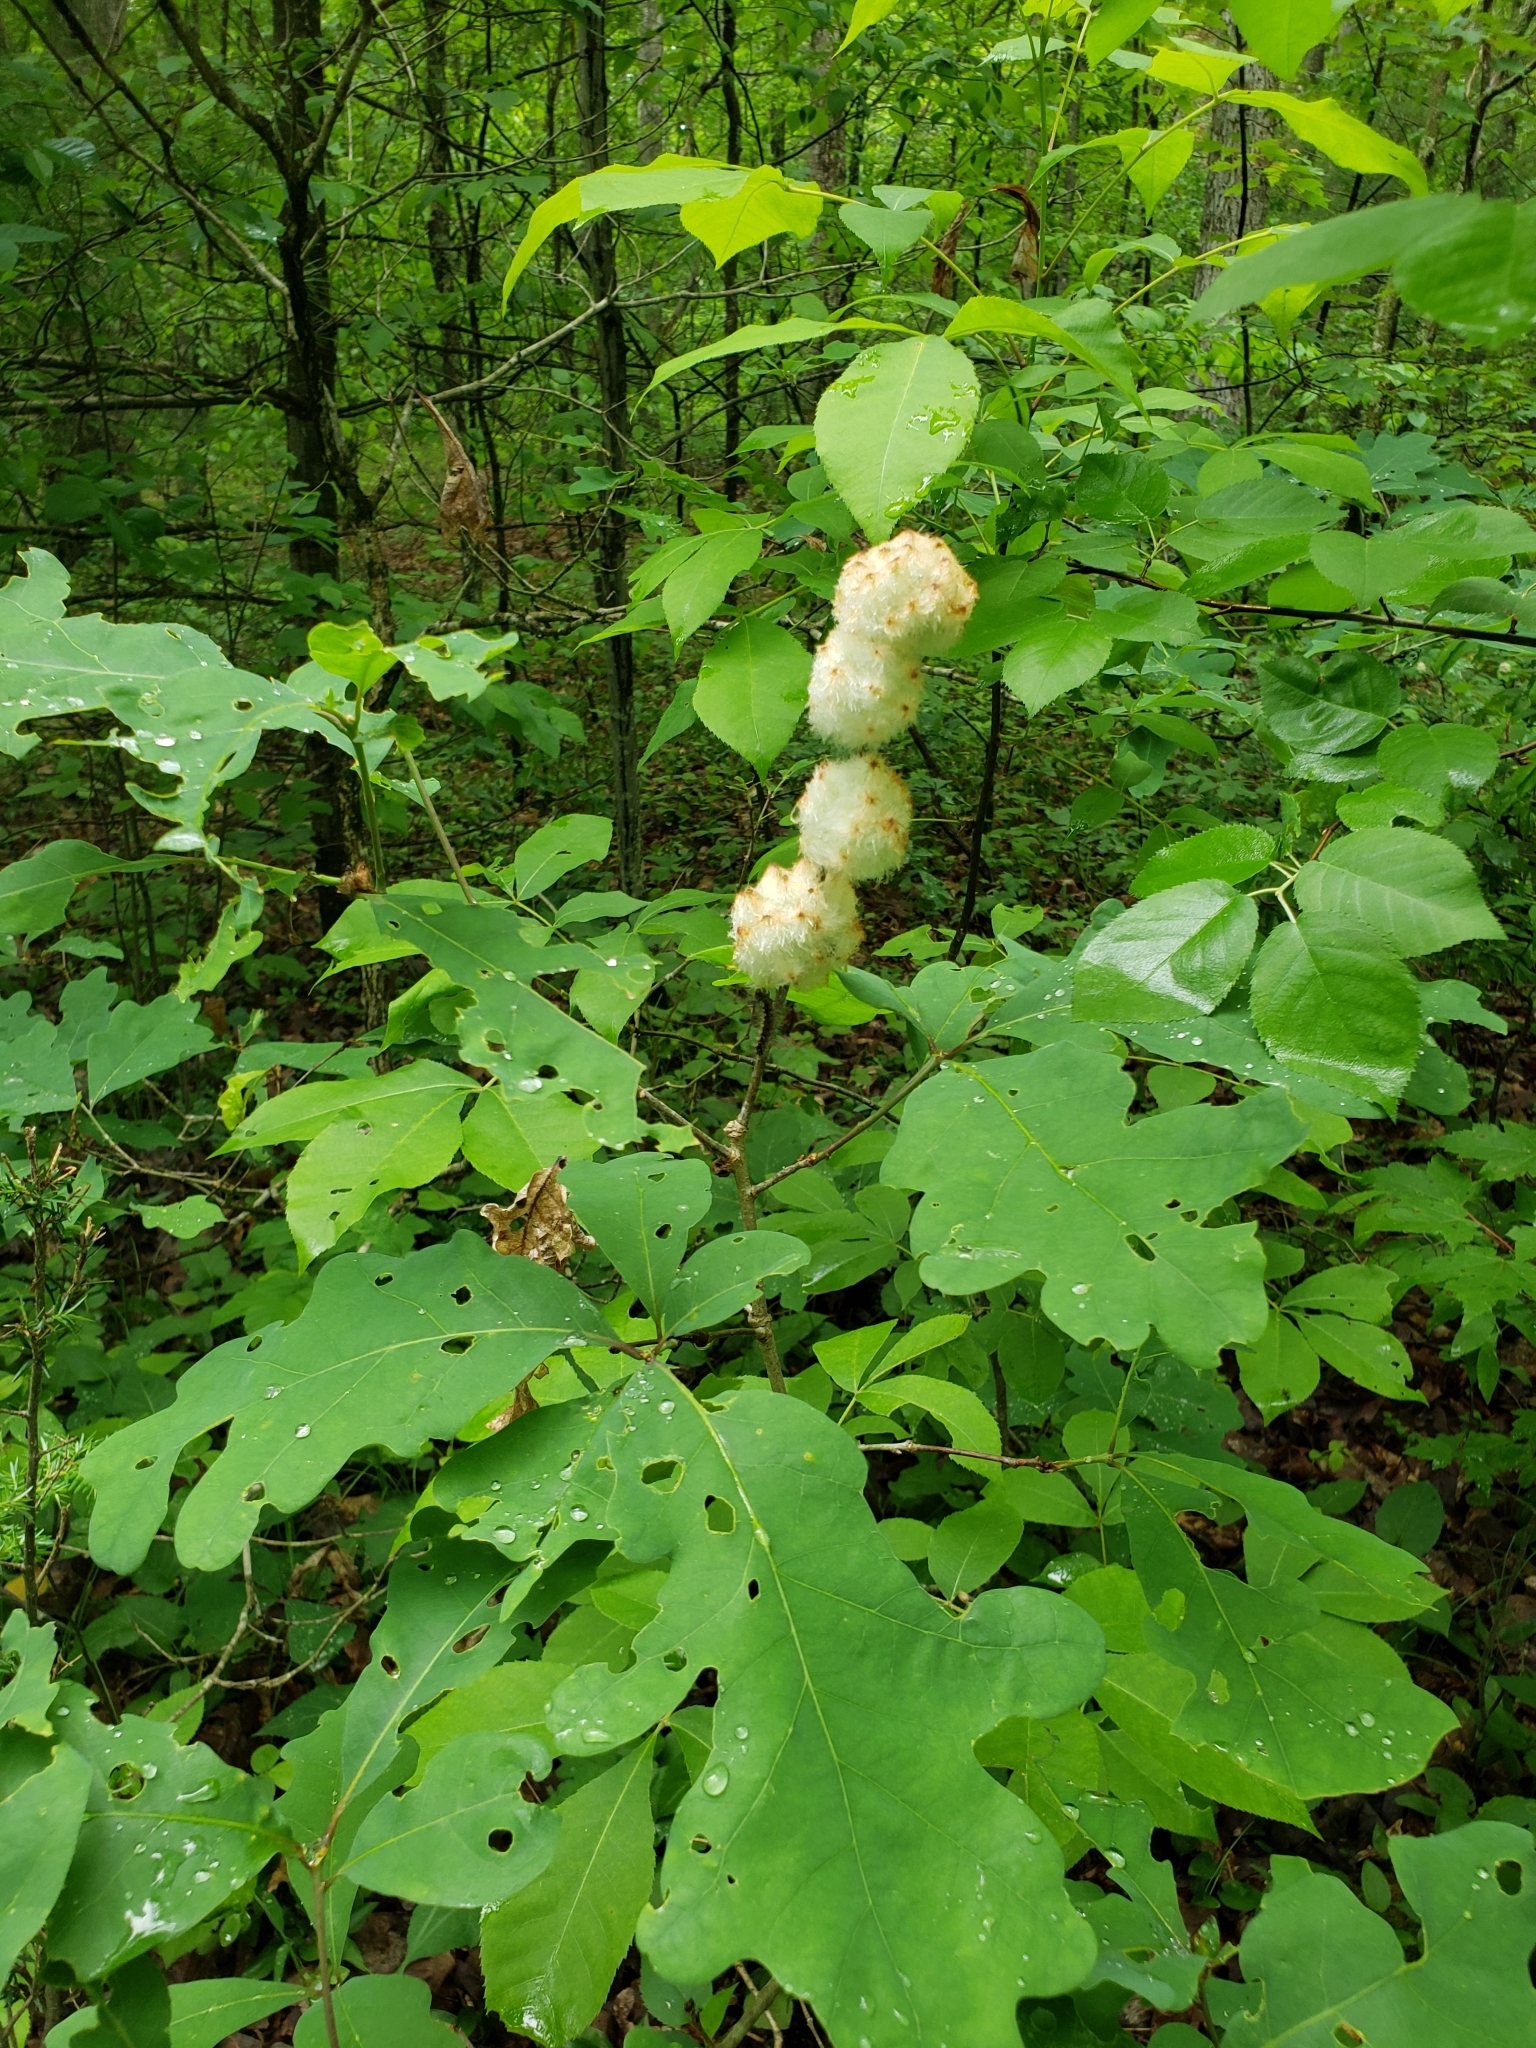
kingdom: Animalia
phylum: Arthropoda
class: Insecta
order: Hymenoptera
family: Cynipidae
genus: Callirhytis
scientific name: Callirhytis
